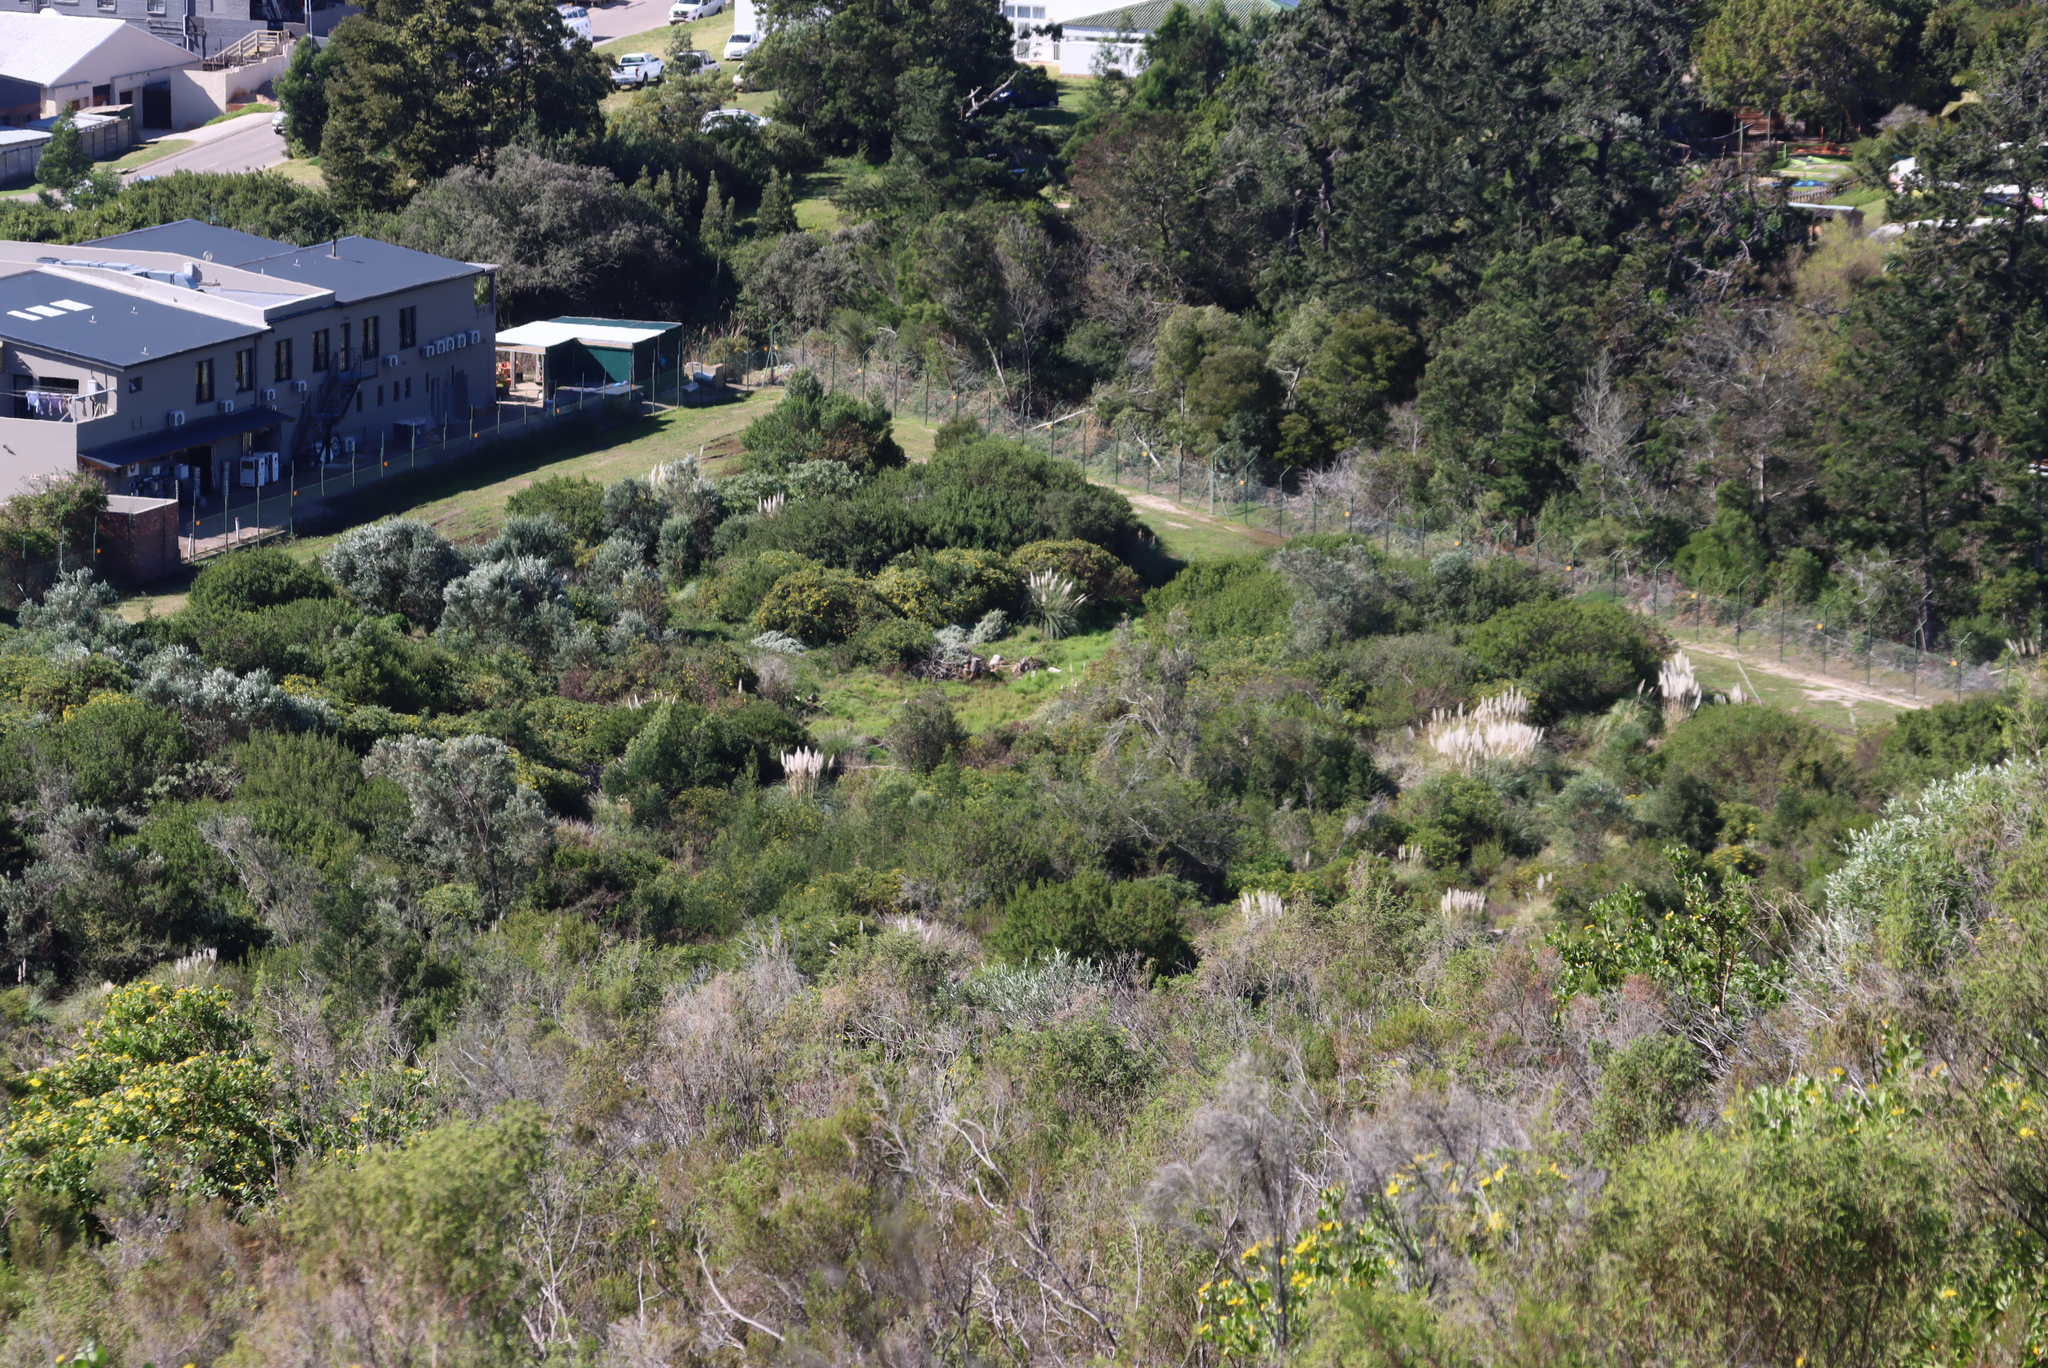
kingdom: Plantae
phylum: Tracheophyta
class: Liliopsida
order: Poales
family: Poaceae
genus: Cenchrus
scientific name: Cenchrus clandestinus
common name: Kikuyugrass
